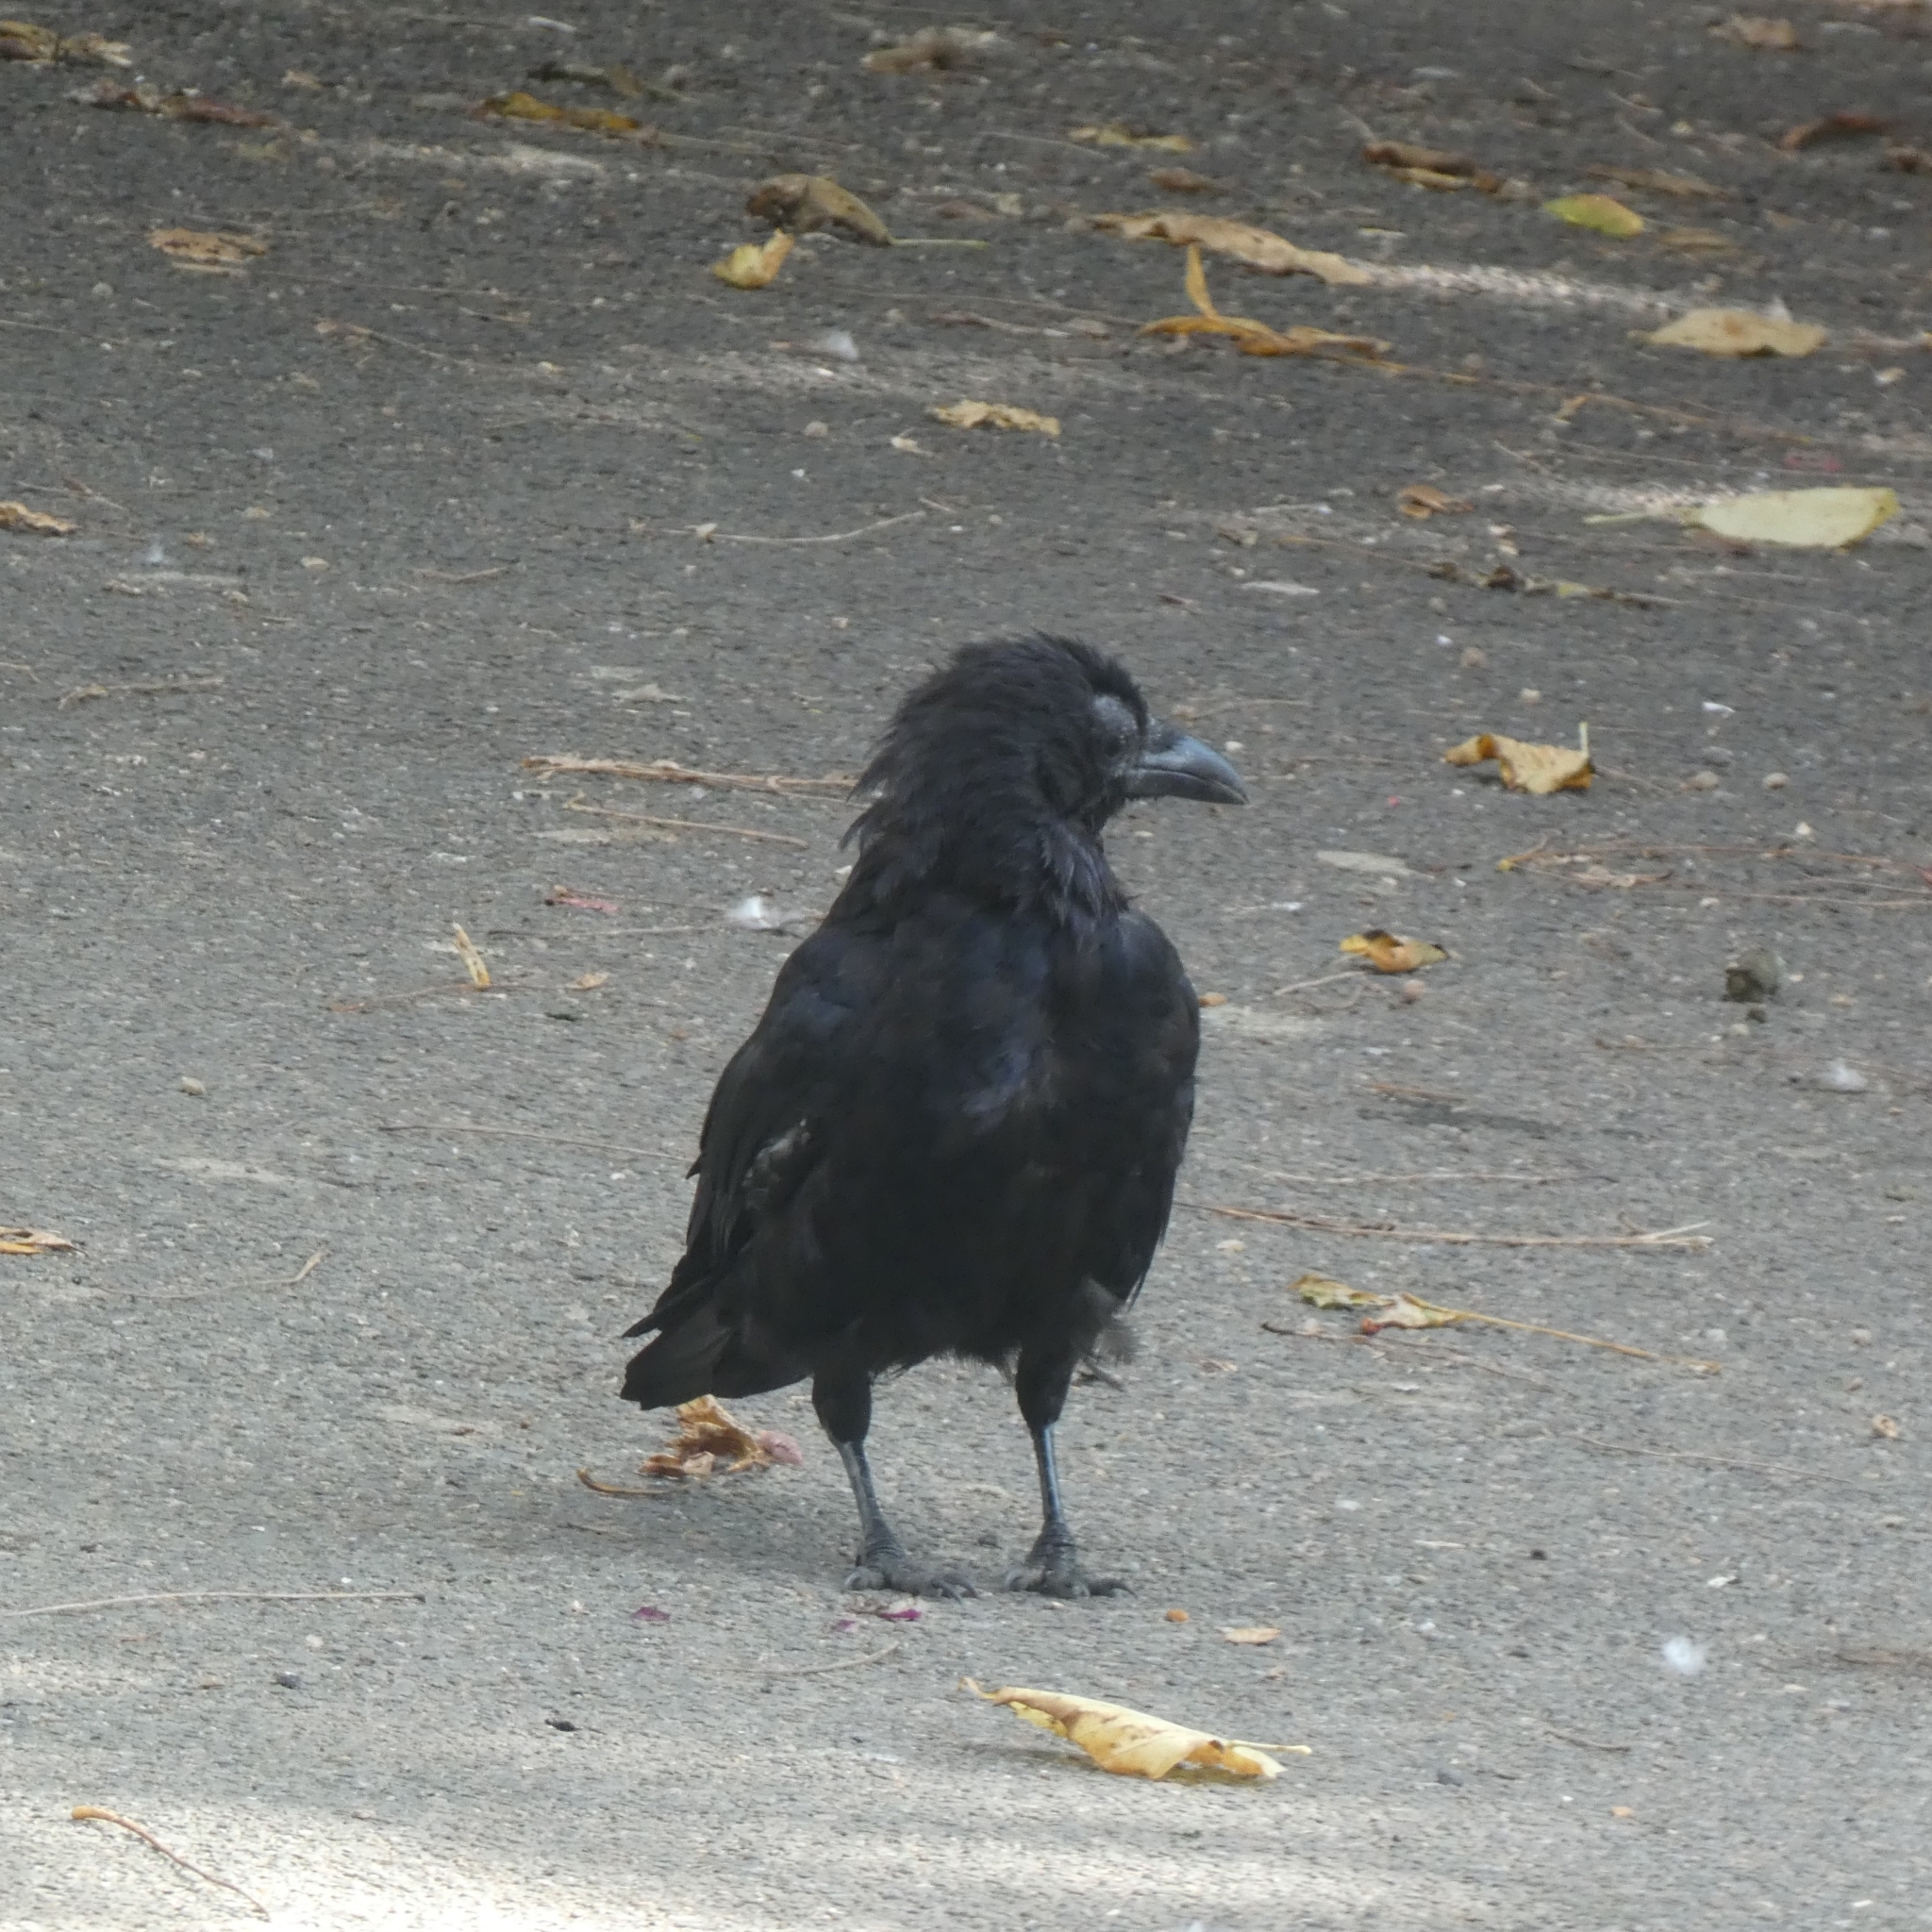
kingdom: Animalia
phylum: Chordata
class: Aves
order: Passeriformes
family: Corvidae
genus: Corvus
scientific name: Corvus corone
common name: Carrion crow
